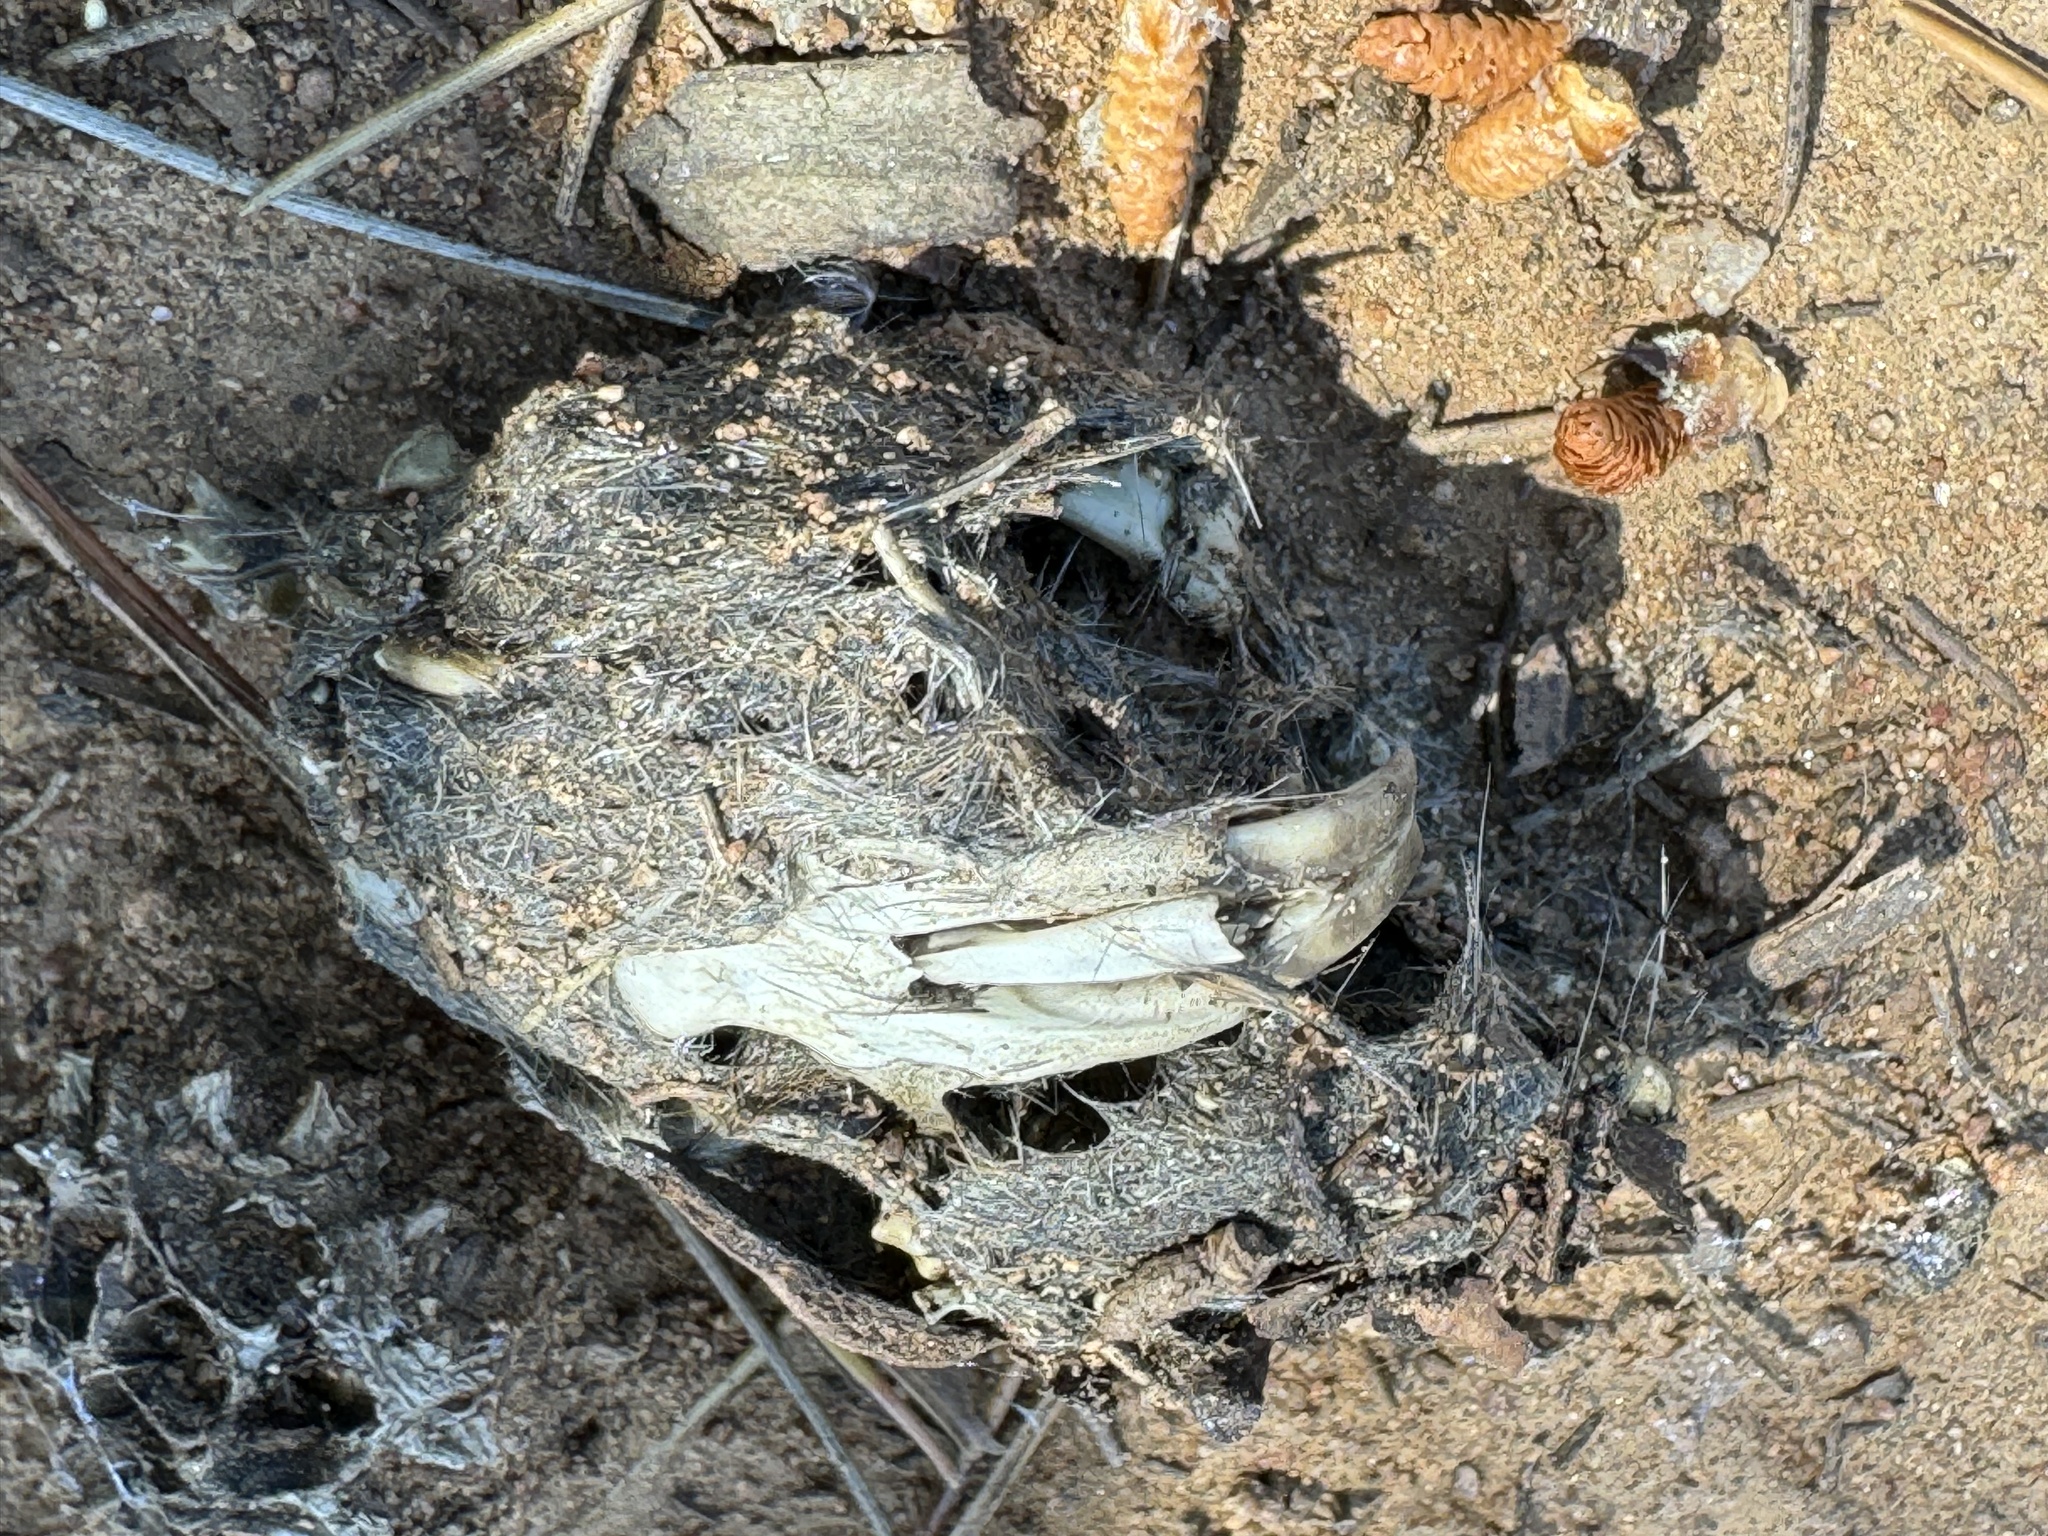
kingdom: Animalia
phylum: Chordata
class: Aves
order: Strigiformes
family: Tytonidae
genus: Tyto
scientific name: Tyto alba
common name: Barn owl
